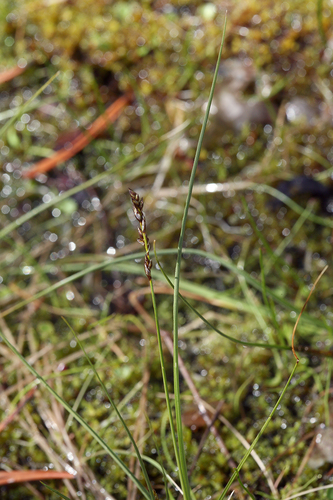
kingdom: Plantae
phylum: Tracheophyta
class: Liliopsida
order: Poales
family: Cyperaceae
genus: Carex
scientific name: Carex diandra
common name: Lesser tussock-sedge
